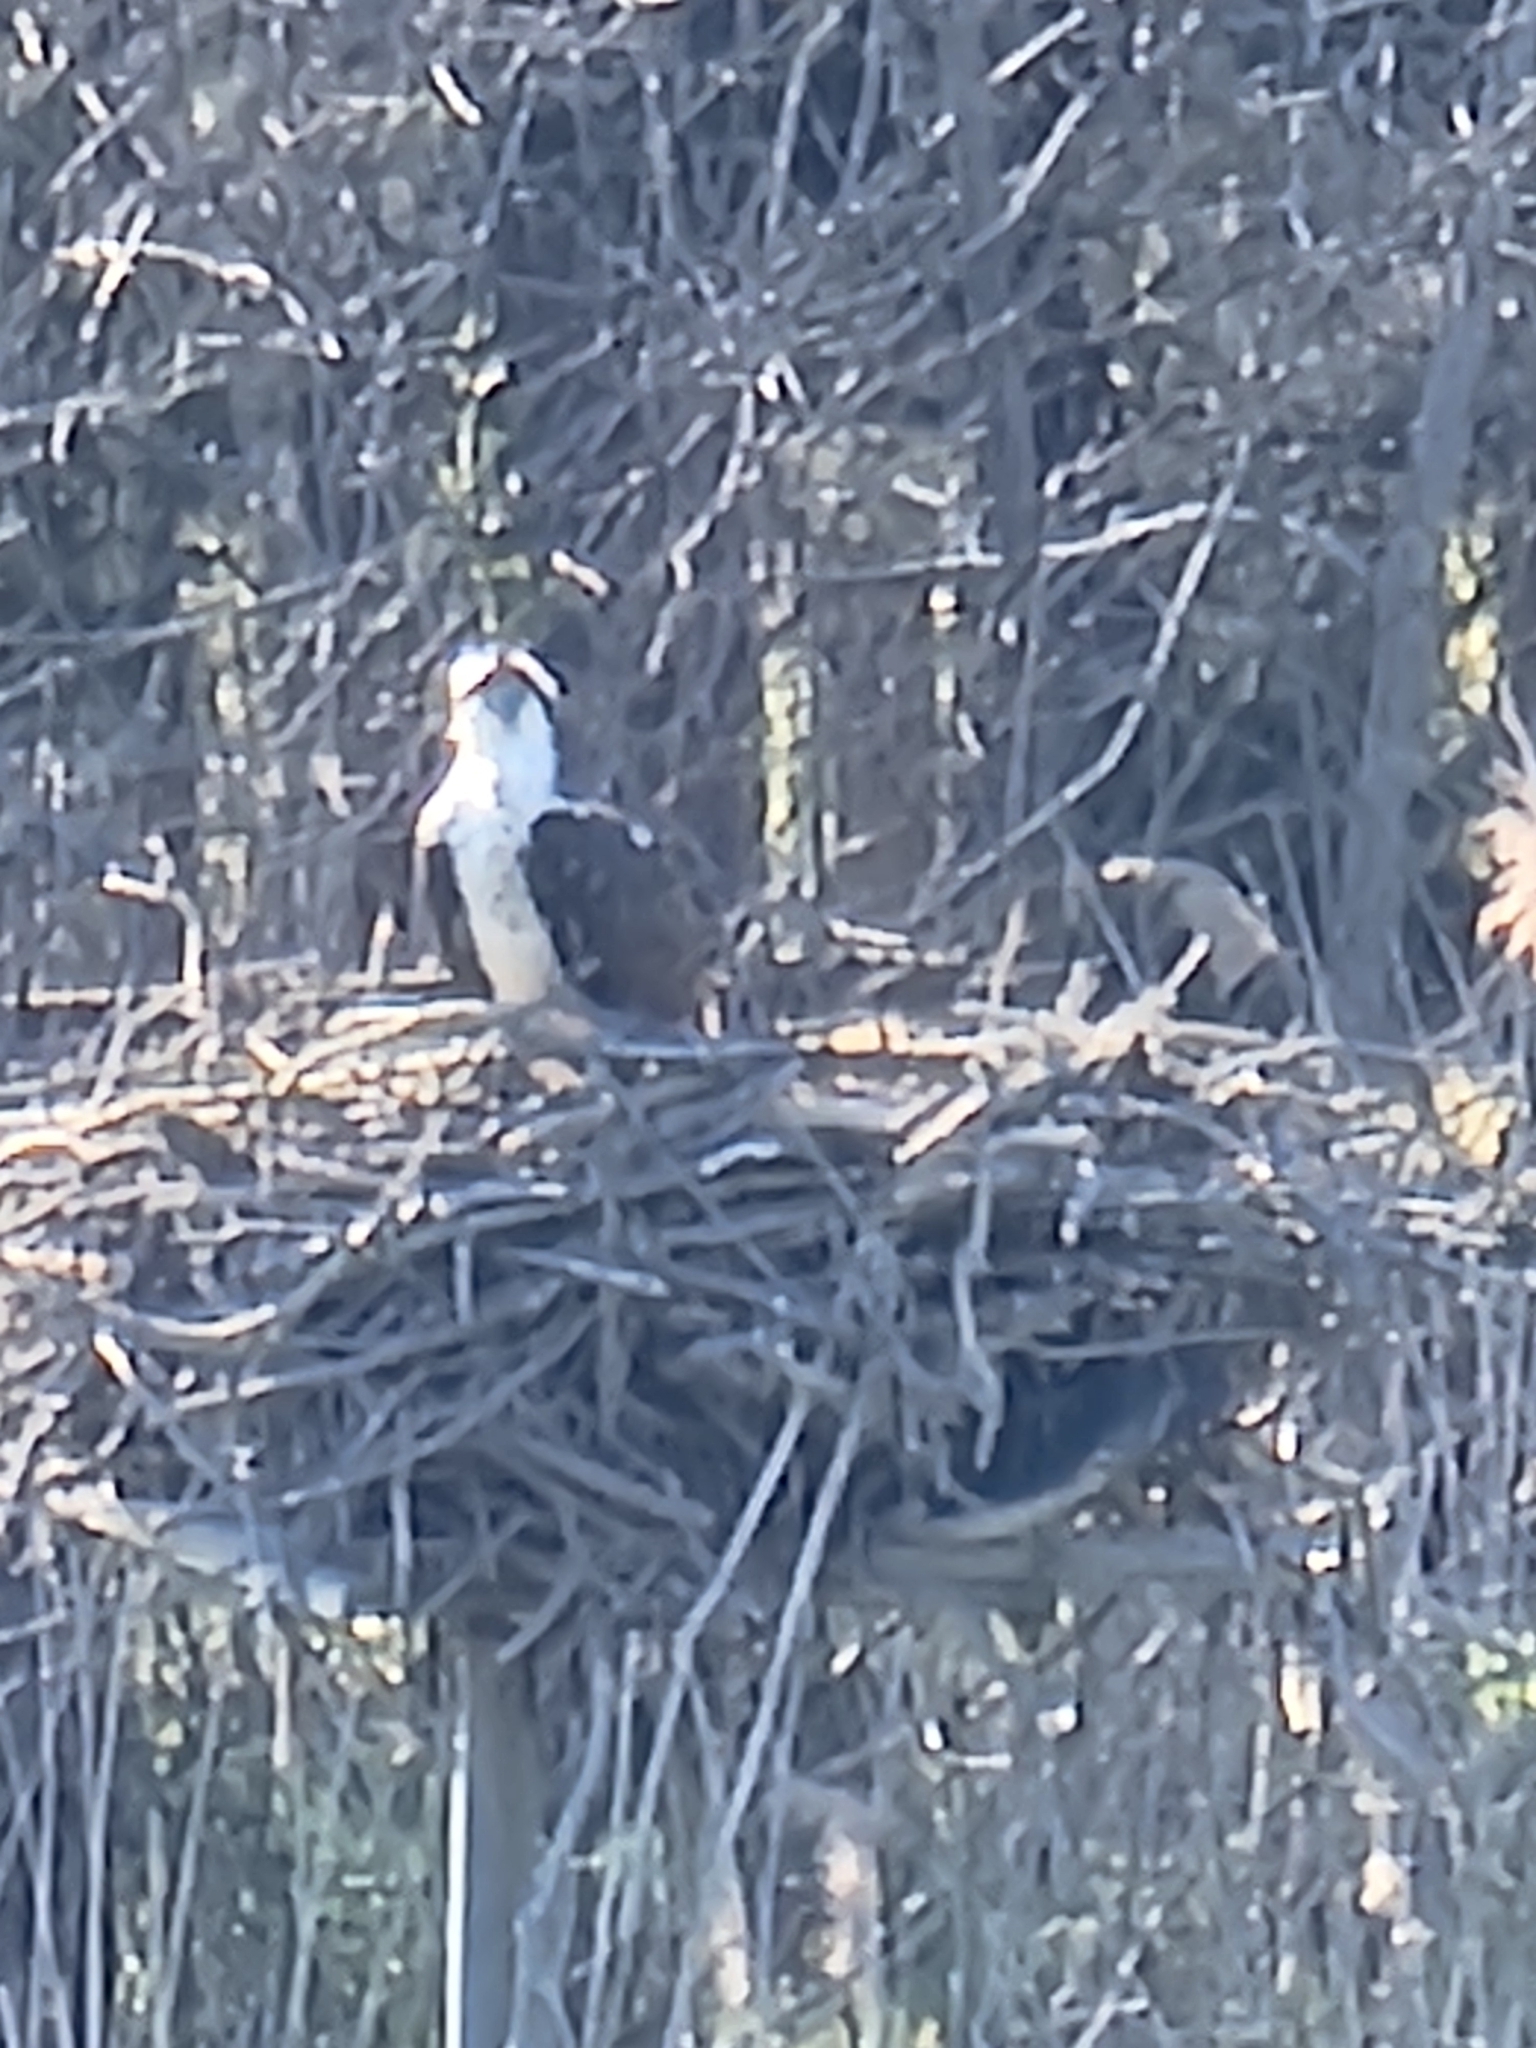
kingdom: Animalia
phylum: Chordata
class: Aves
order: Accipitriformes
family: Pandionidae
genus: Pandion
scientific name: Pandion haliaetus
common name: Osprey
